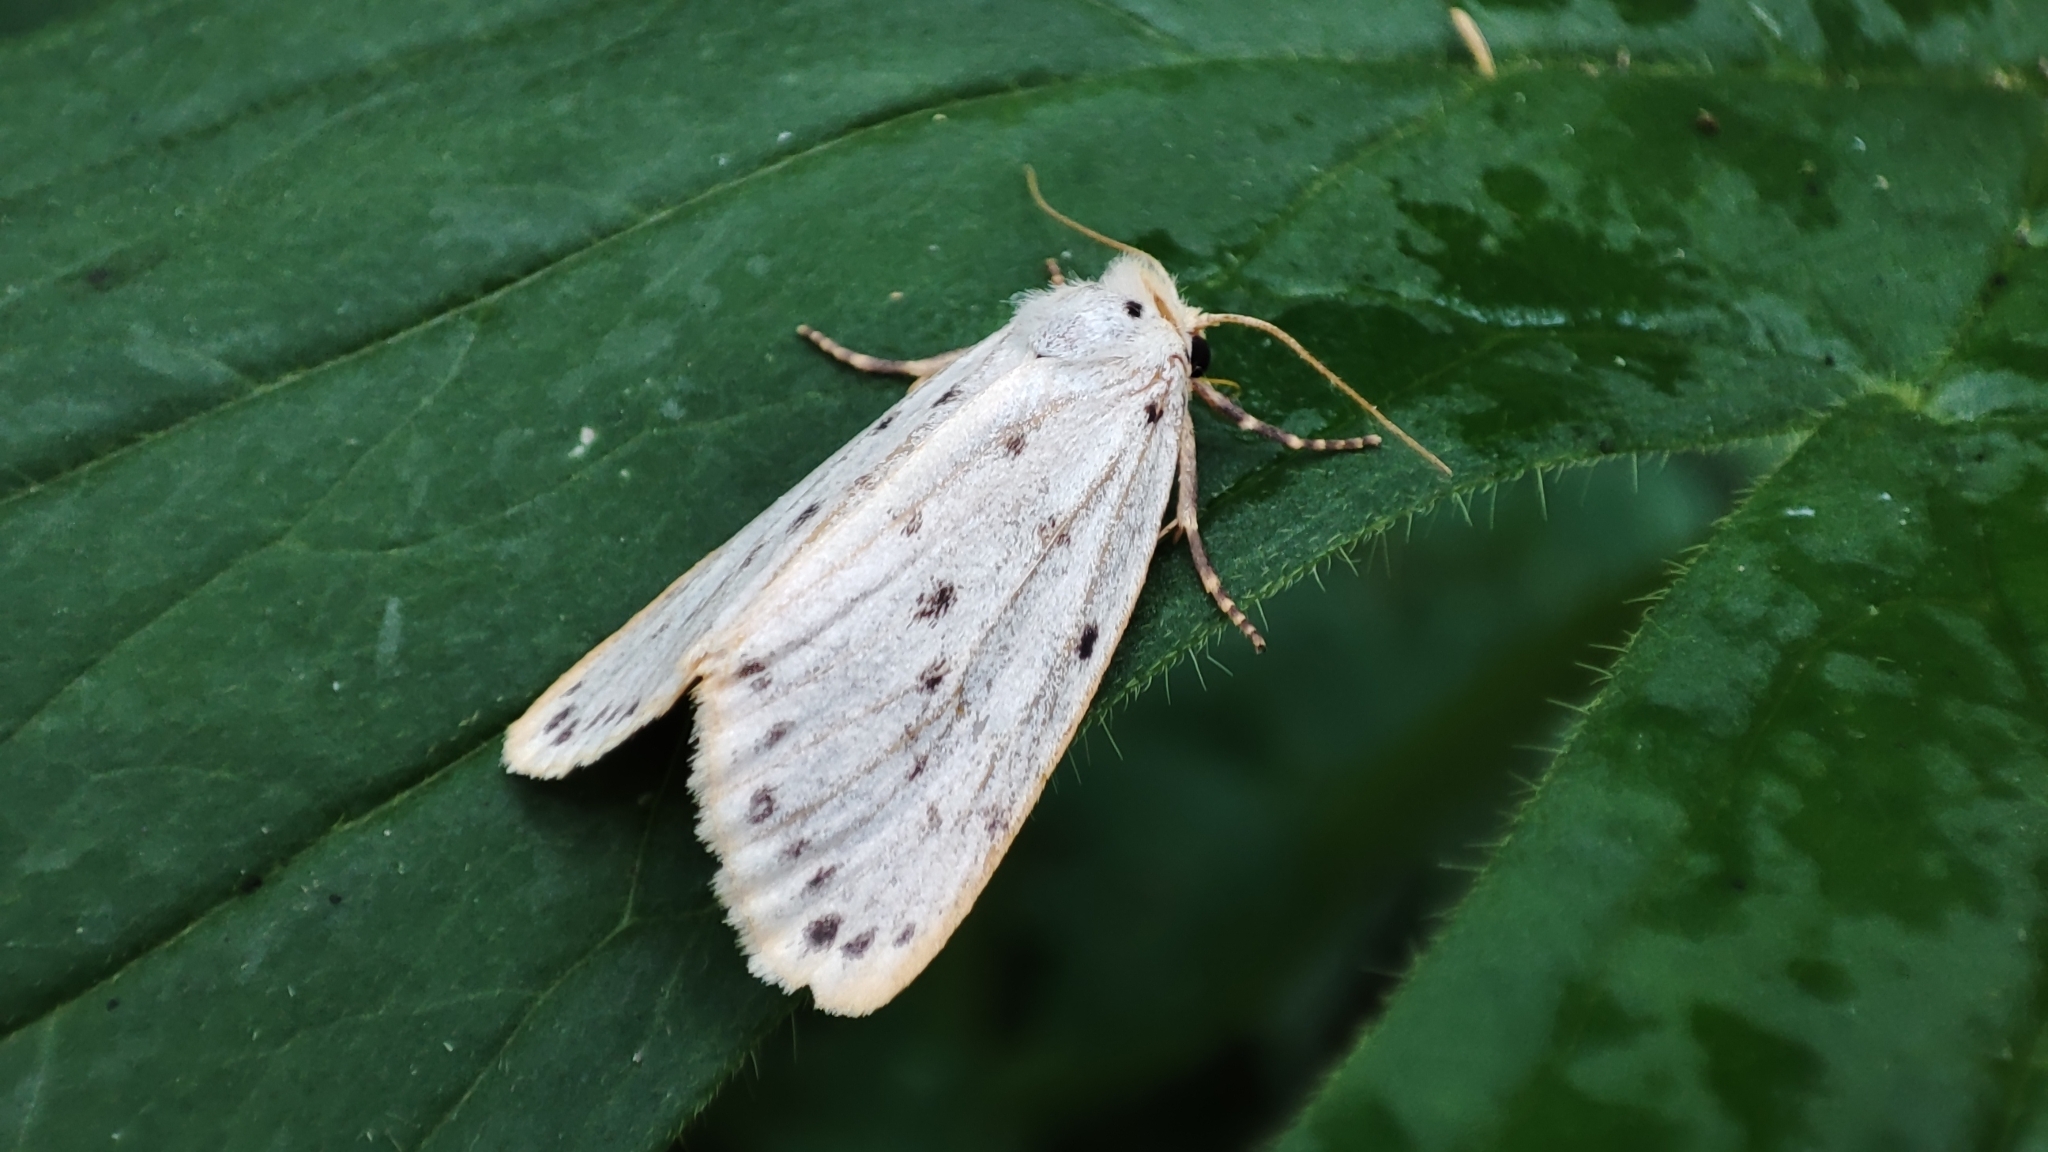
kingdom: Animalia
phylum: Arthropoda
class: Insecta
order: Lepidoptera
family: Erebidae
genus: Stigmatophora
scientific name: Stigmatophora micans
